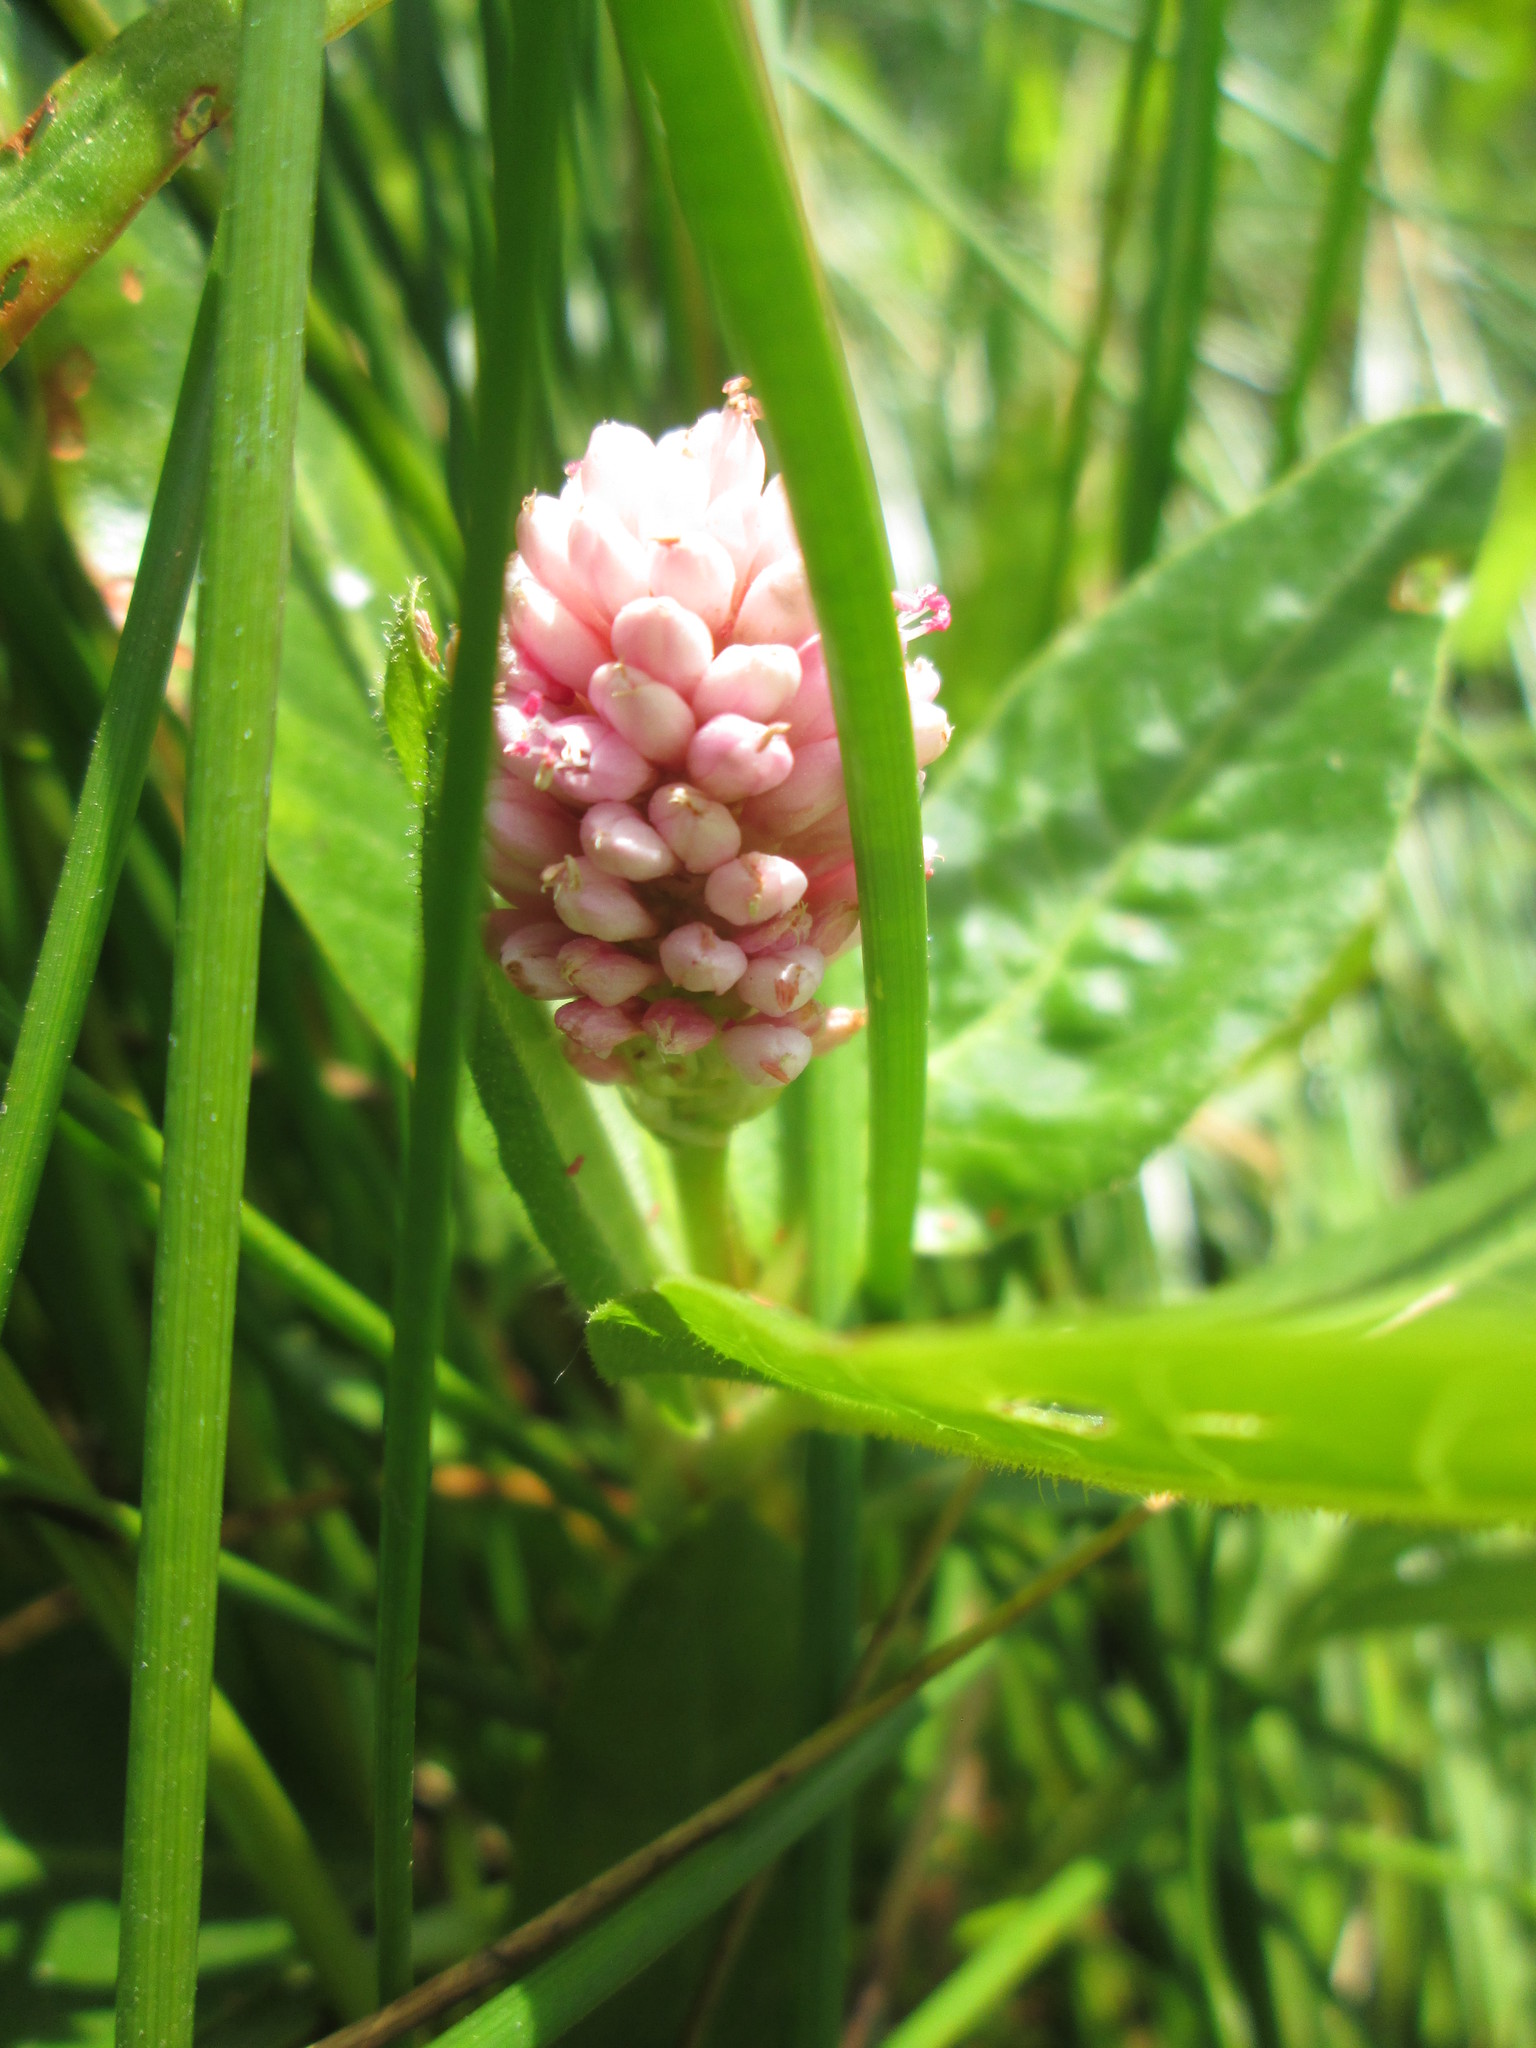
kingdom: Plantae
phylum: Tracheophyta
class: Magnoliopsida
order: Caryophyllales
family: Polygonaceae
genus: Persicaria
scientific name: Persicaria amphibia
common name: Amphibious bistort
